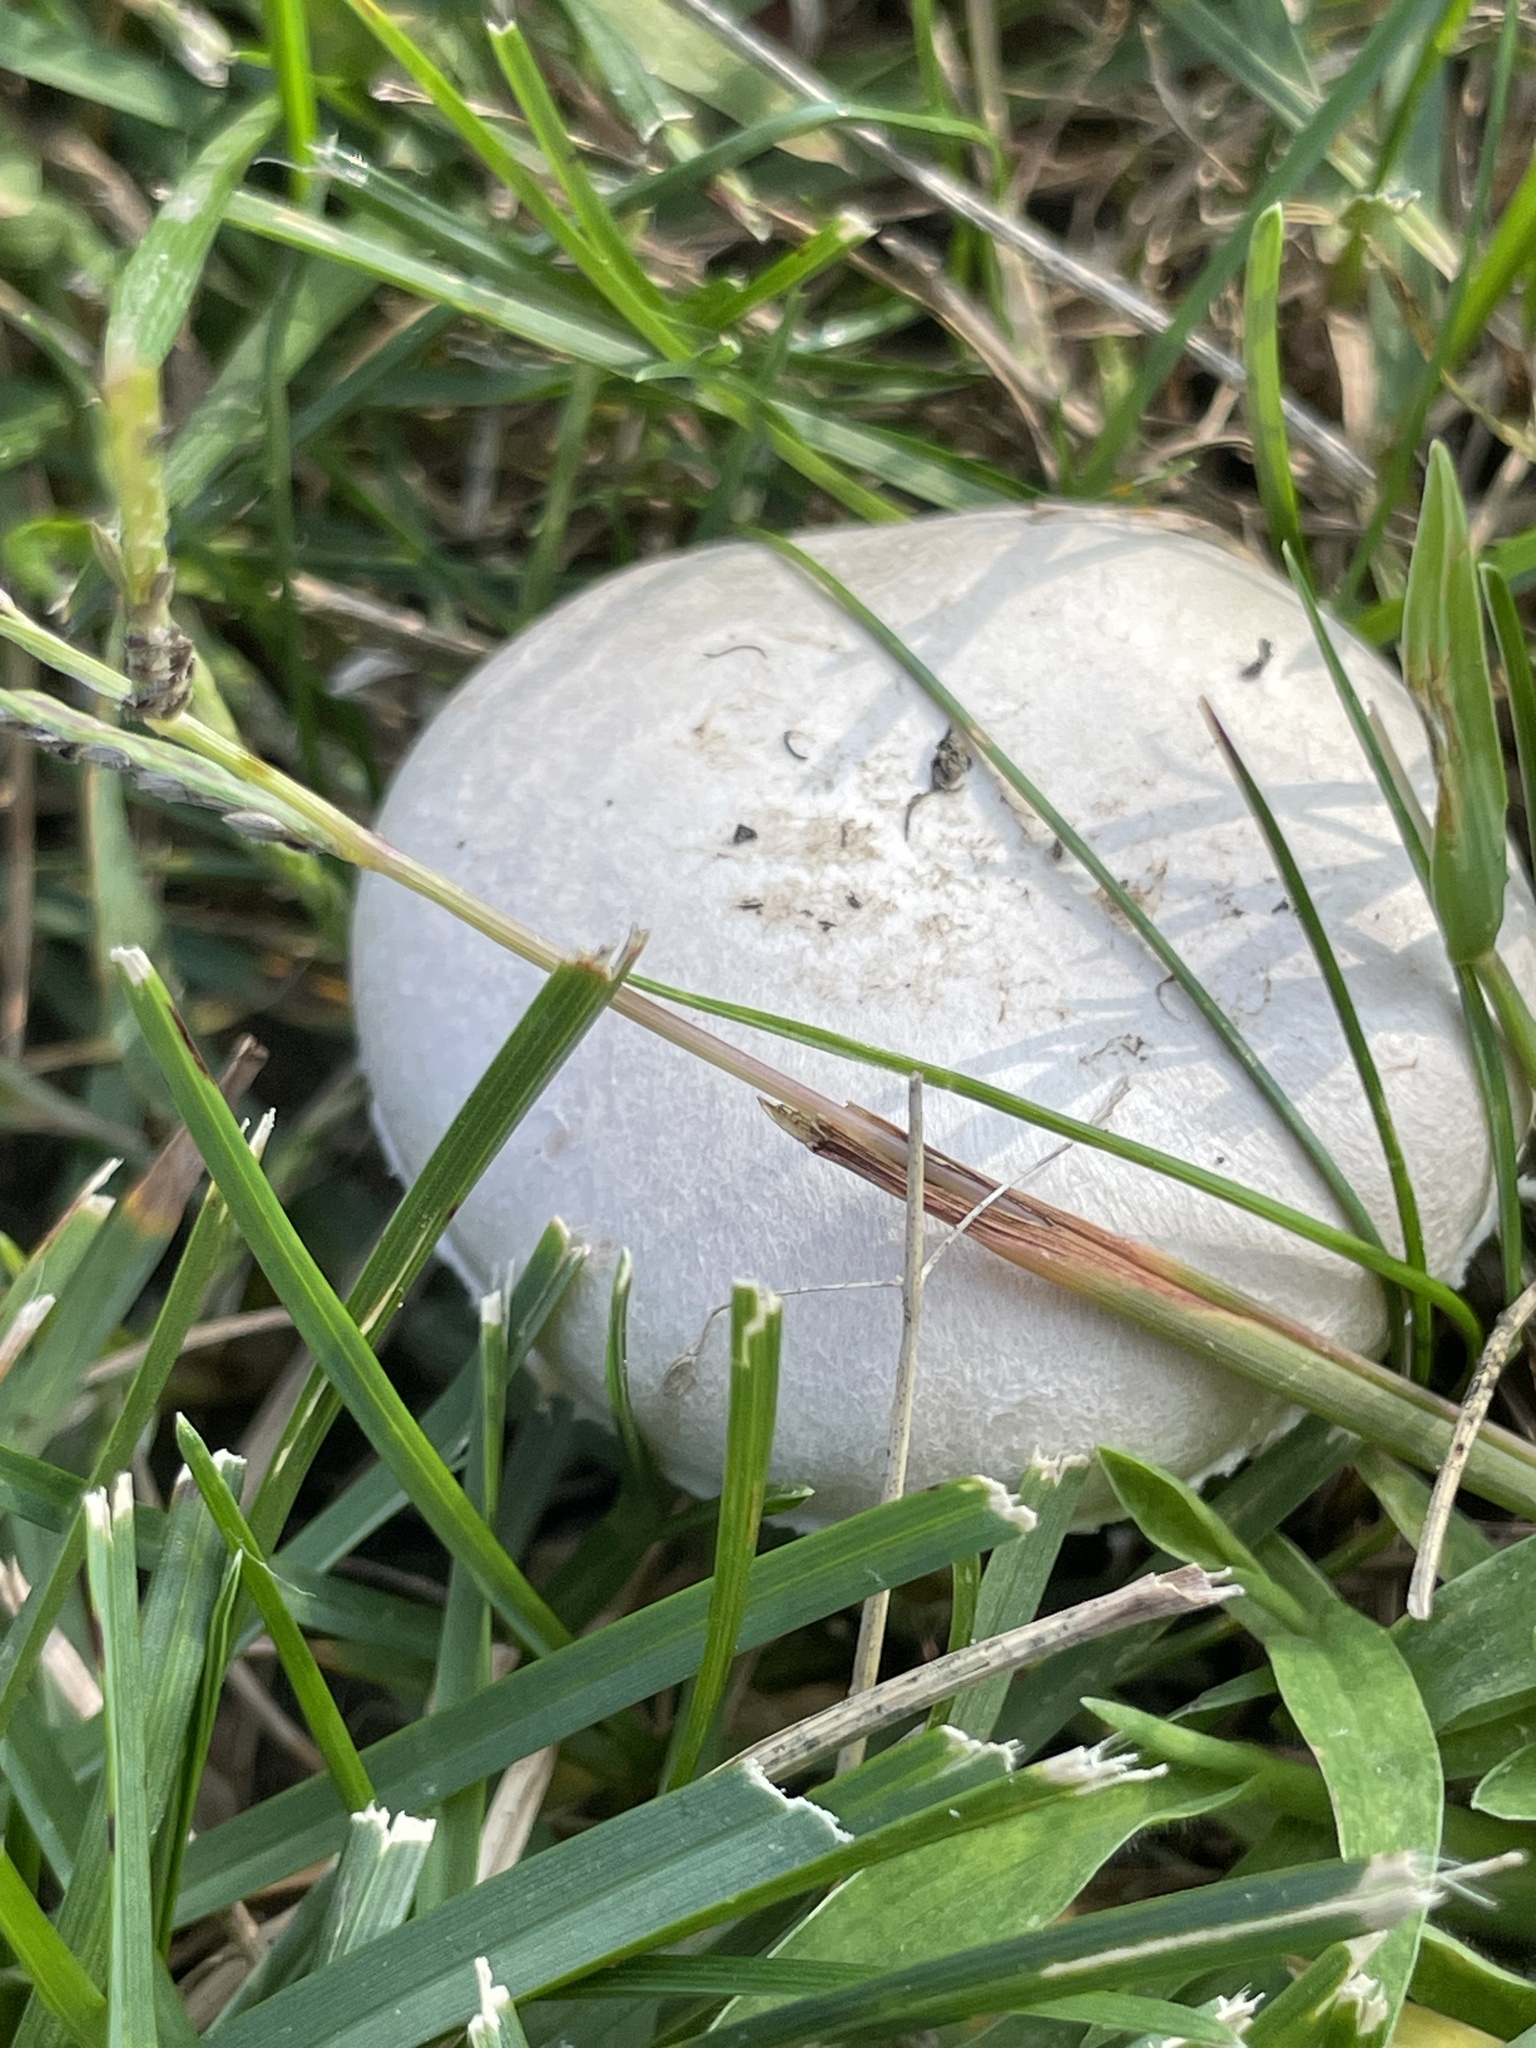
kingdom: Fungi
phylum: Basidiomycota
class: Agaricomycetes
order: Agaricales
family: Agaricaceae
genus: Agaricus
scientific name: Agaricus campestris
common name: Field mushroom
